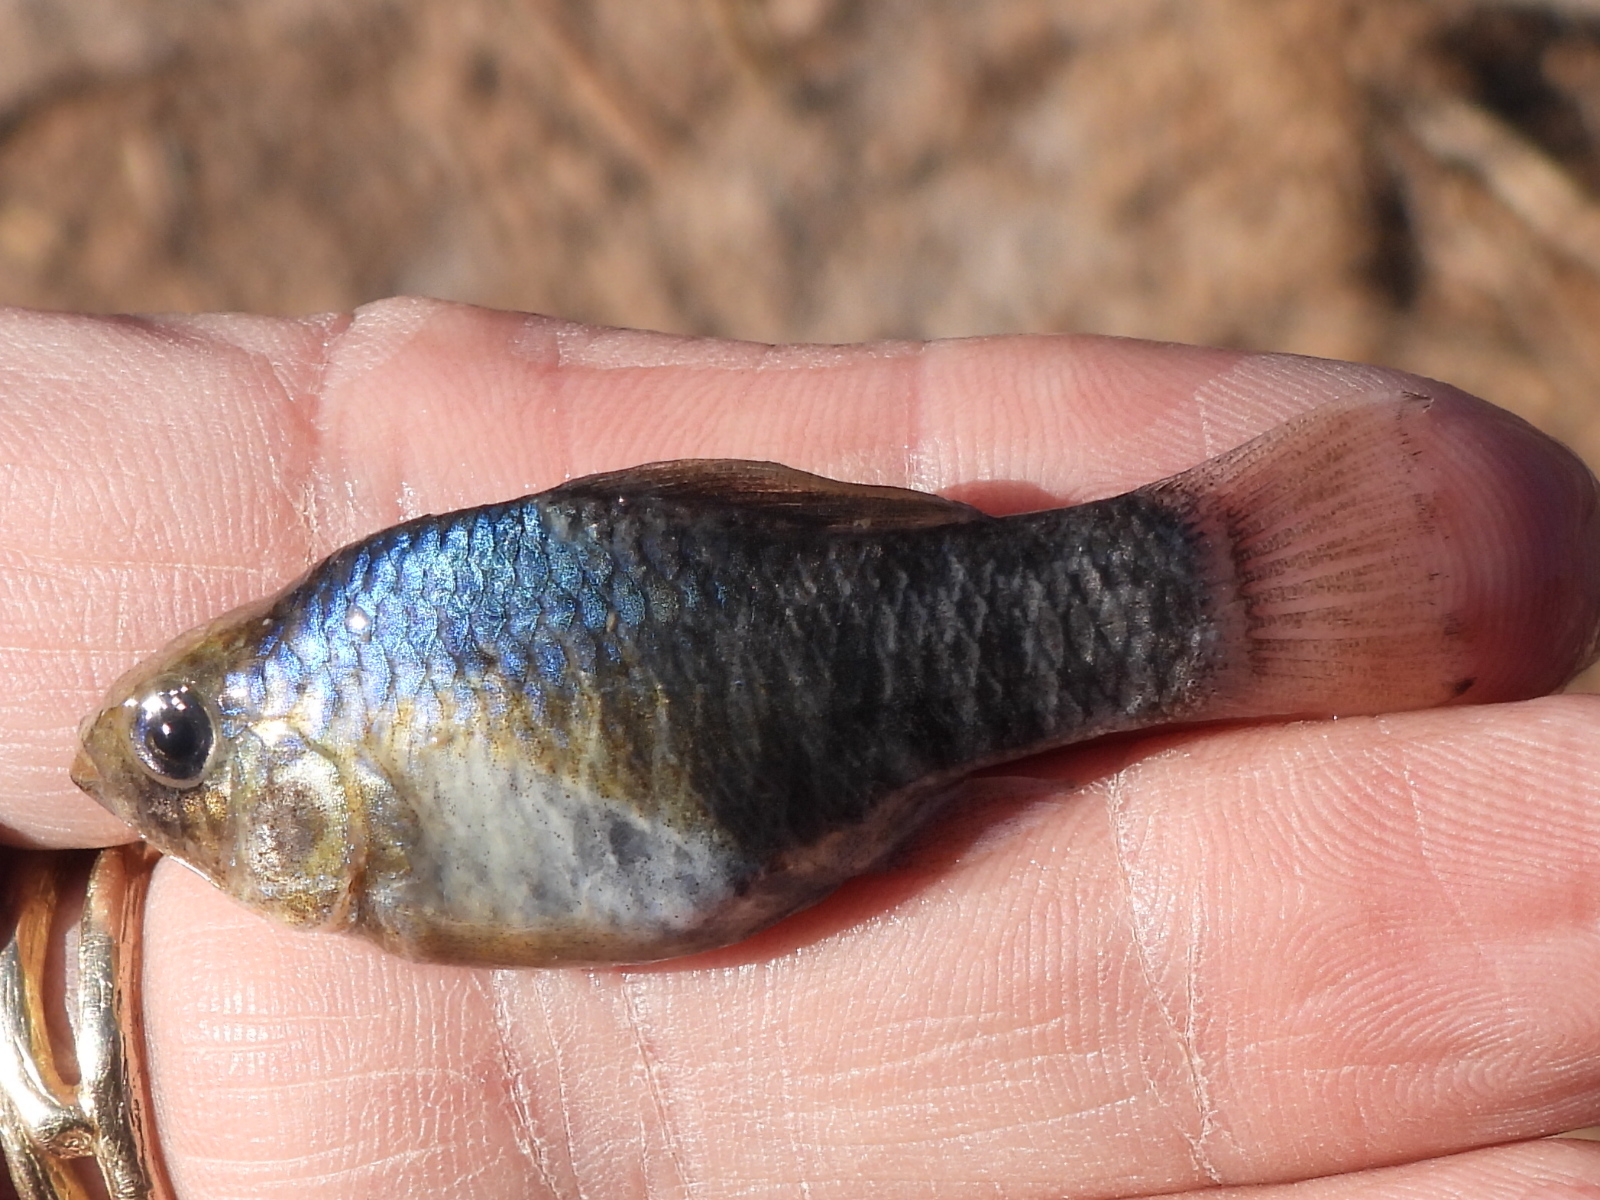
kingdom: Animalia
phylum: Chordata
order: Cyprinodontiformes
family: Cyprinodontidae
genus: Cyprinodon
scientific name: Cyprinodon variegatus
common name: Sheepshead minnow
